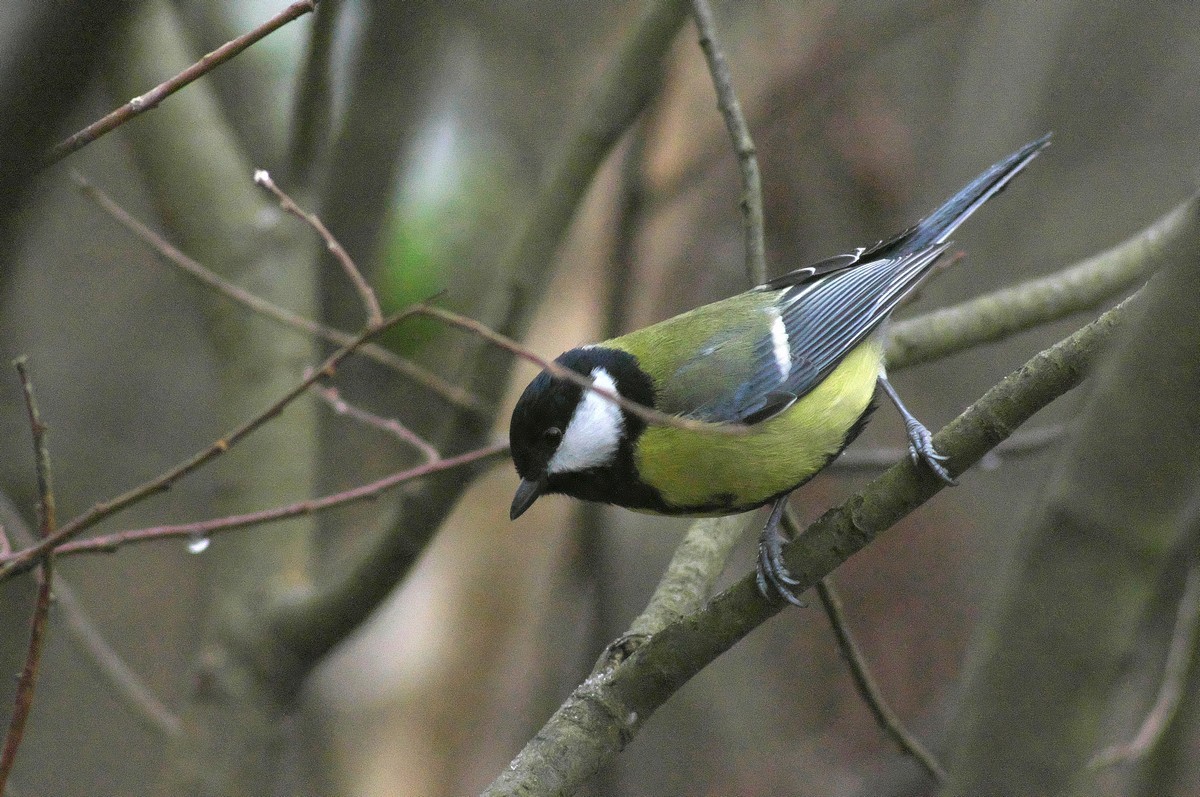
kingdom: Animalia
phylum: Chordata
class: Aves
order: Passeriformes
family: Paridae
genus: Parus
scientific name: Parus major
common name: Great tit
